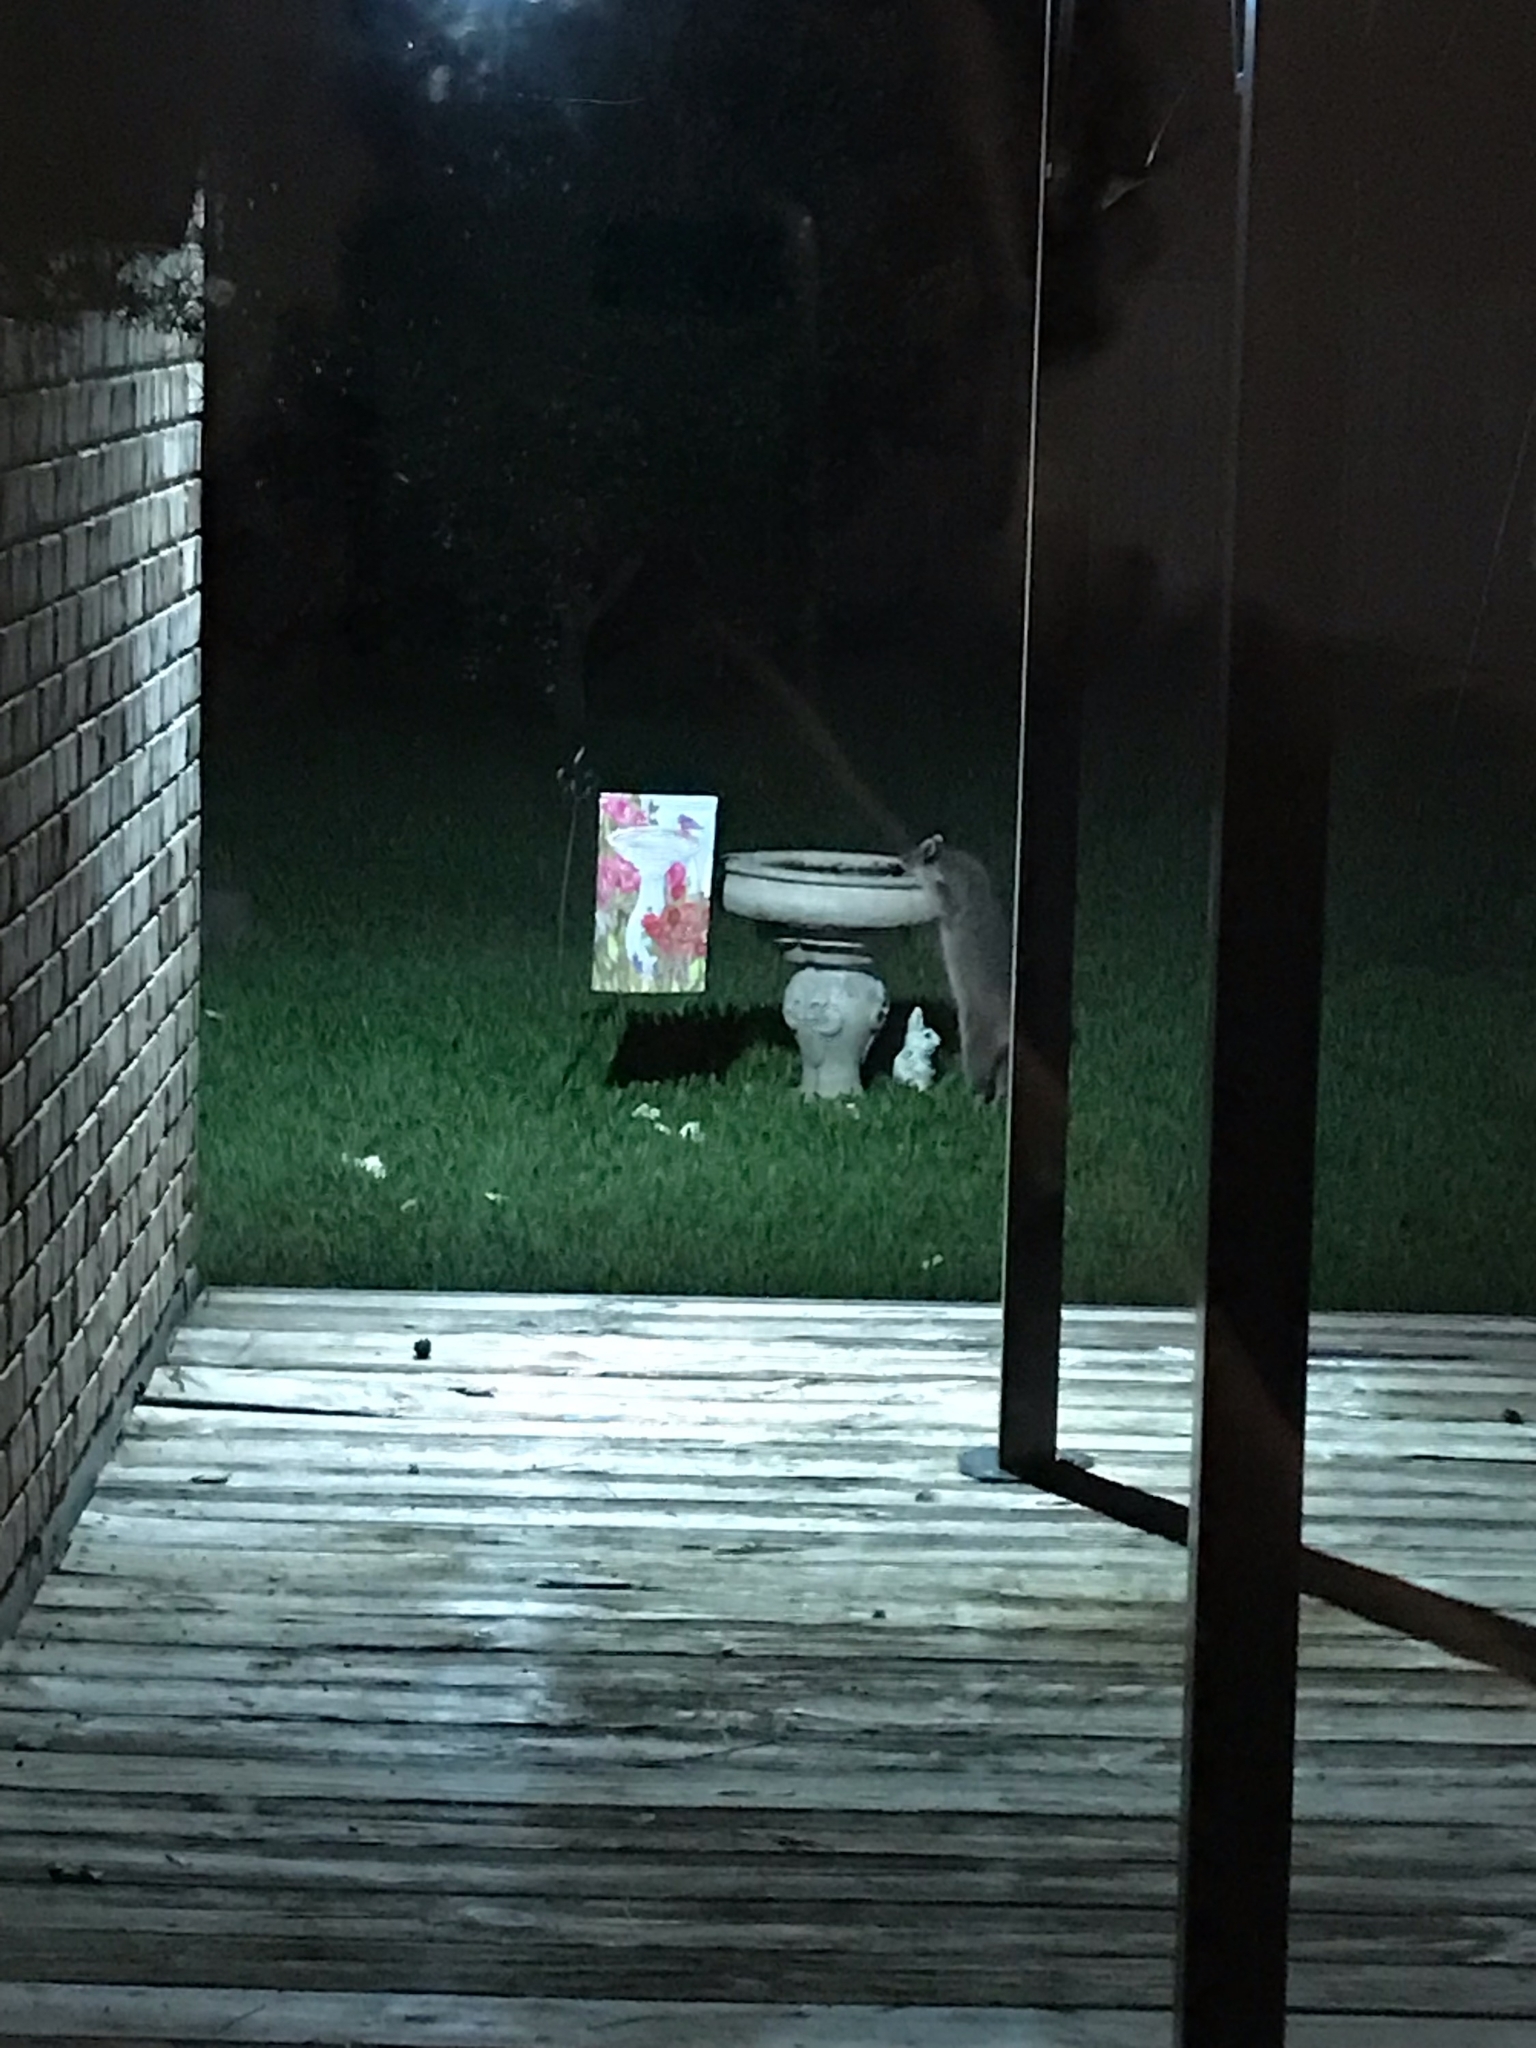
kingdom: Animalia
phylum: Chordata
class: Mammalia
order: Carnivora
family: Procyonidae
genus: Procyon
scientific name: Procyon lotor
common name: Raccoon
